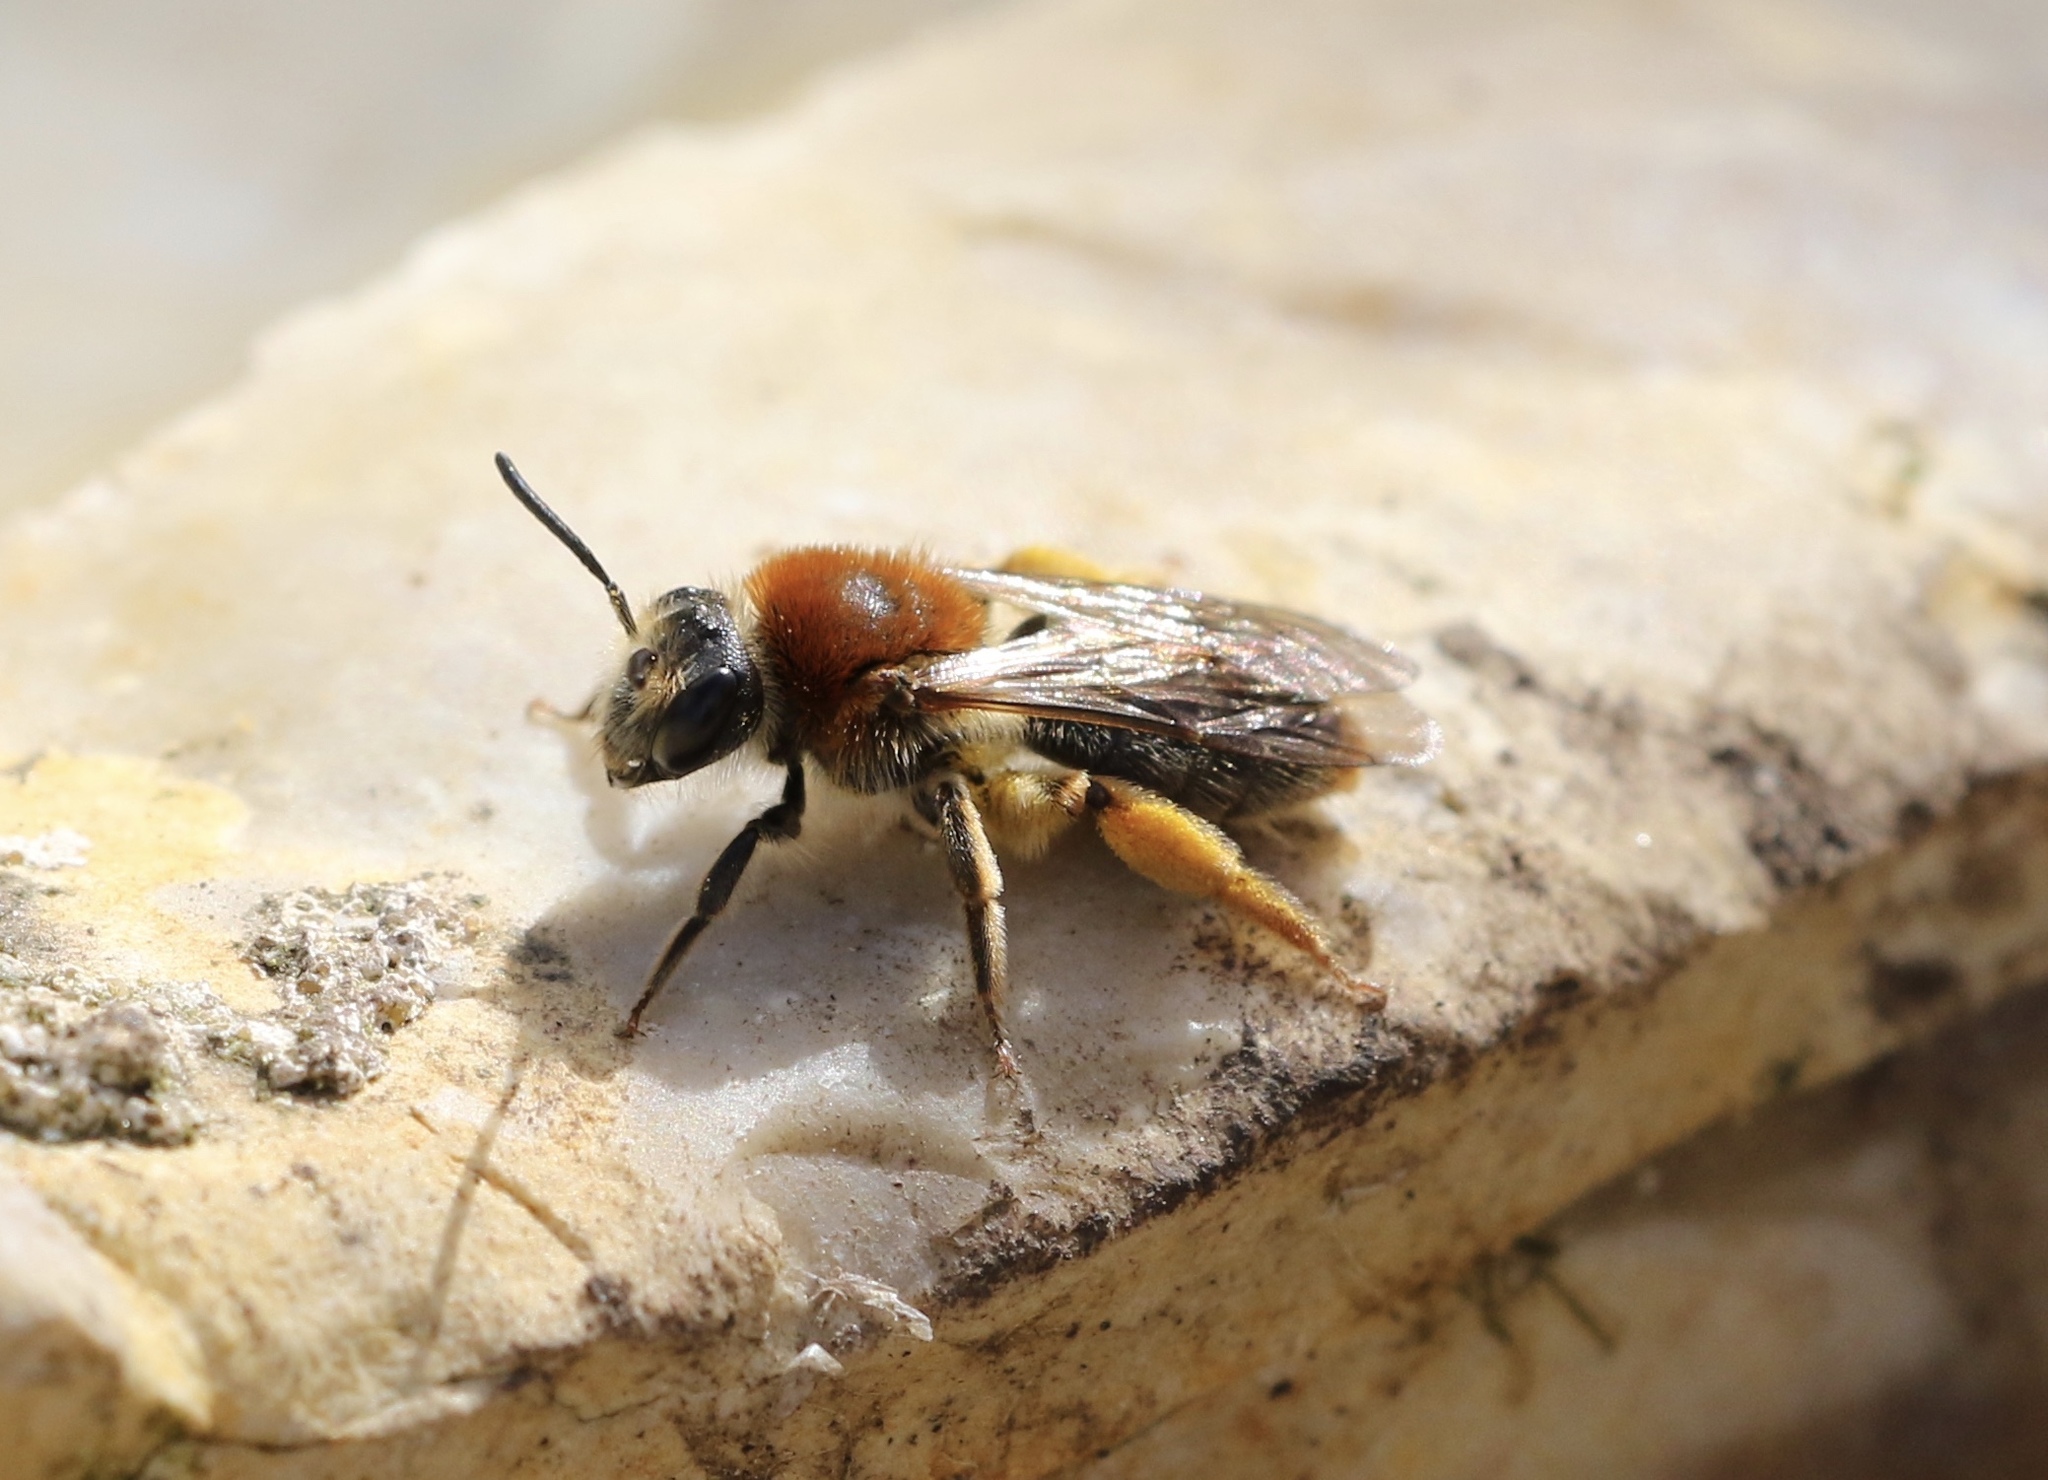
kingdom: Animalia
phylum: Arthropoda
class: Insecta
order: Hymenoptera
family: Andrenidae
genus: Andrena
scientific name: Andrena haemorrhoa
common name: Early mining bee
